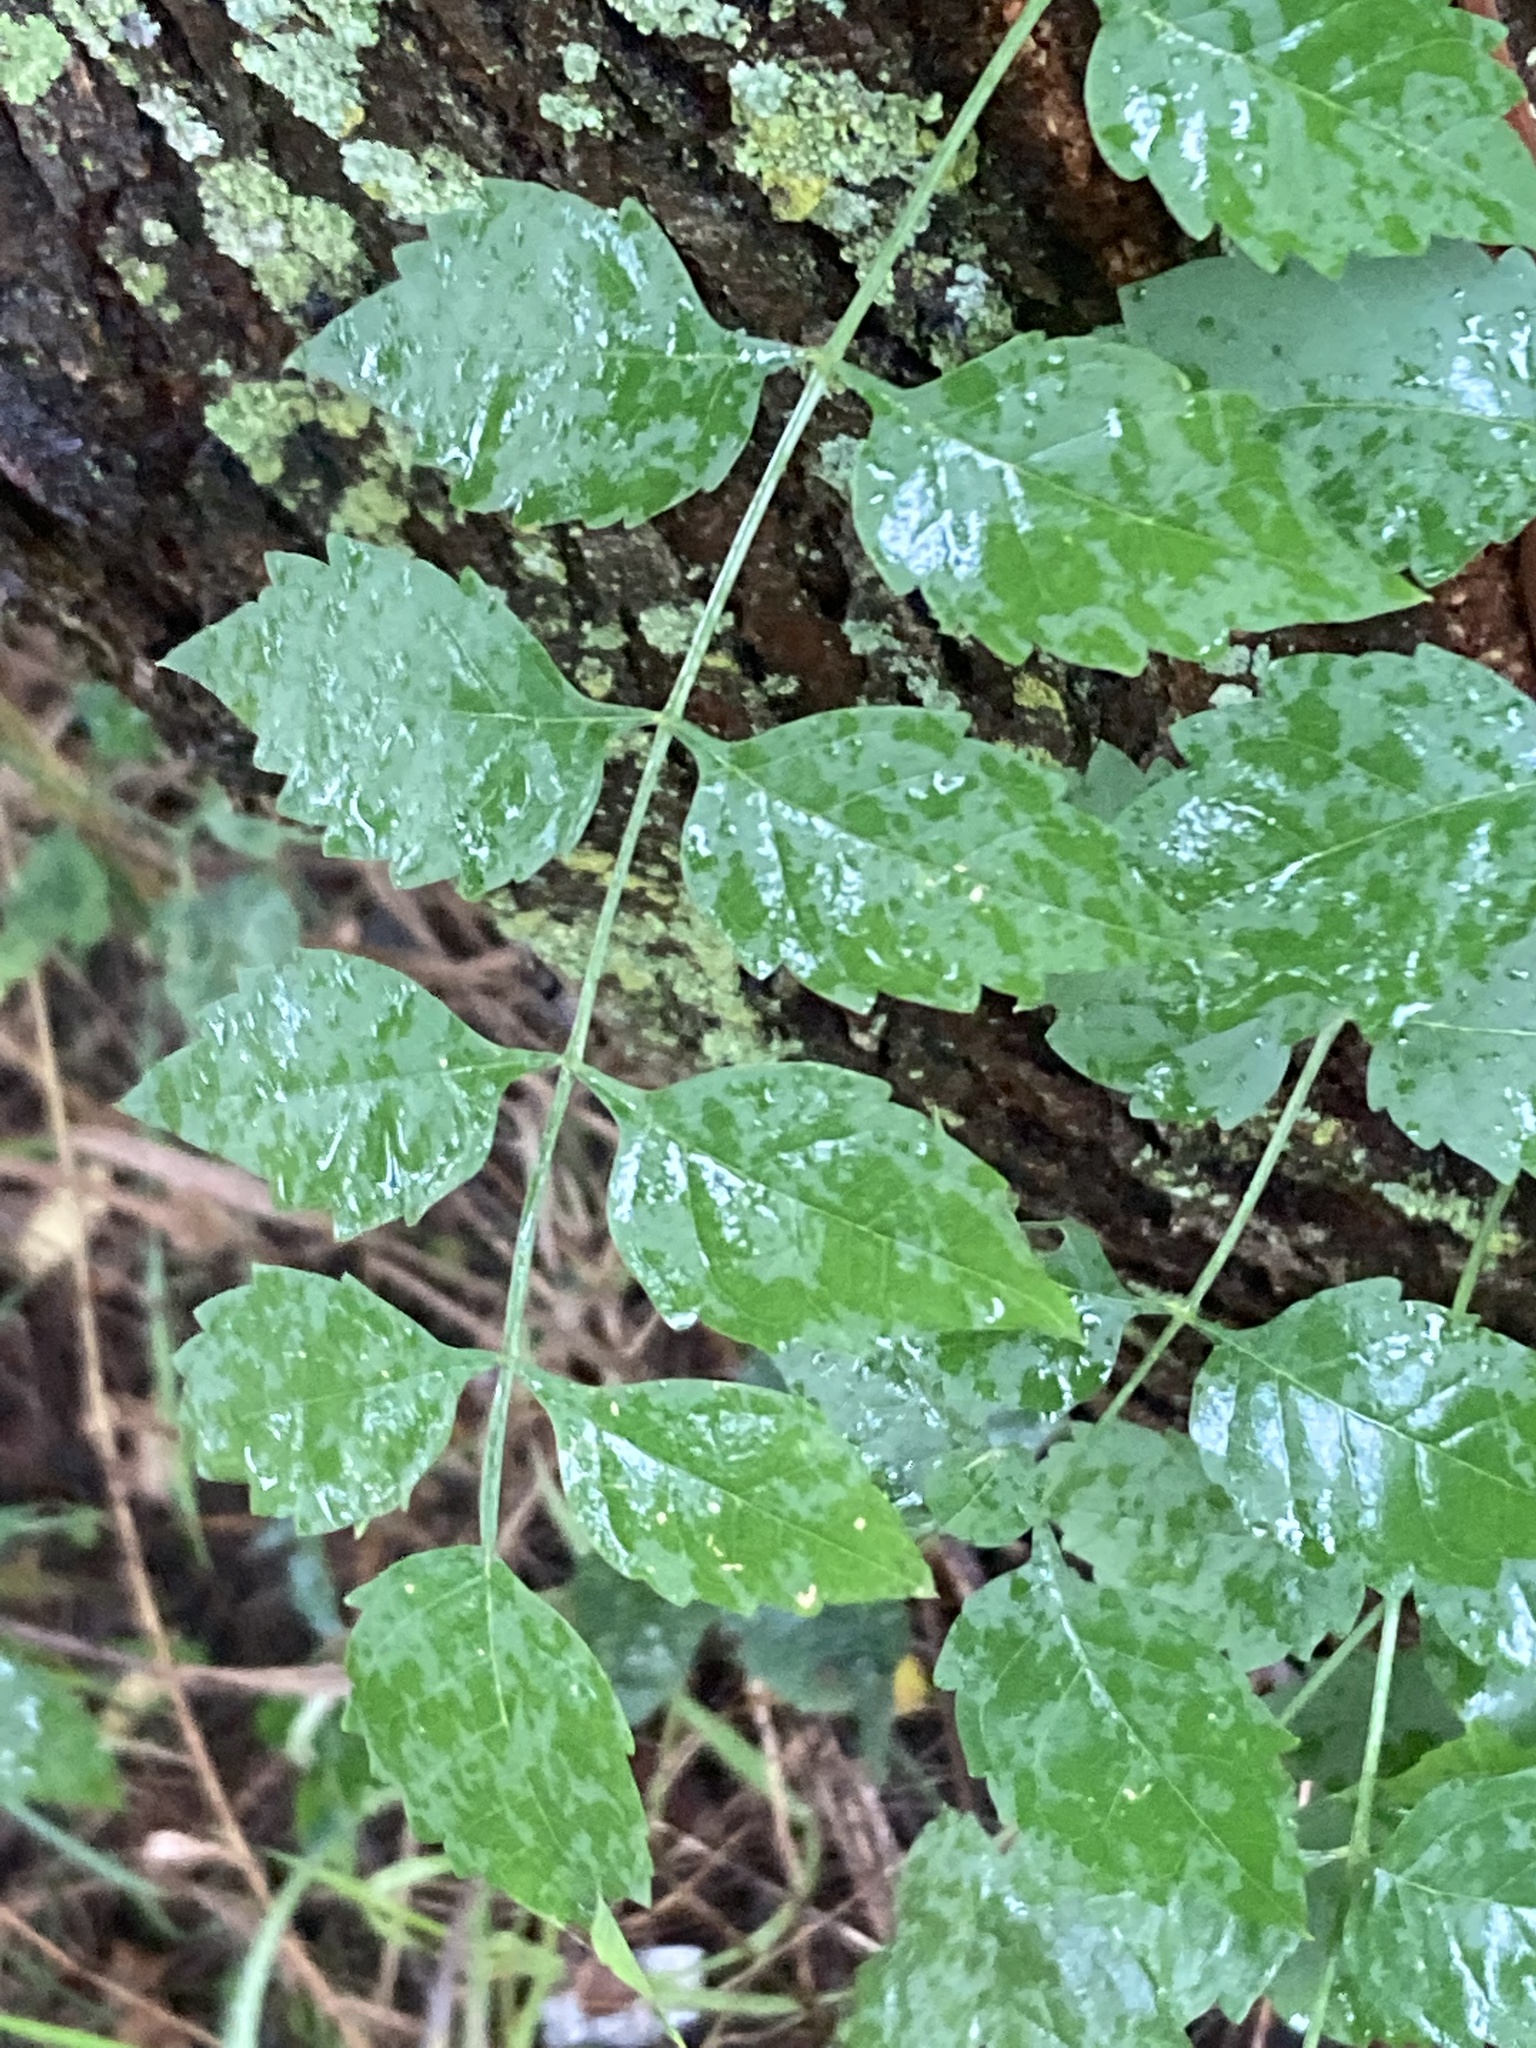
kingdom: Plantae
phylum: Tracheophyta
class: Magnoliopsida
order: Lamiales
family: Bignoniaceae
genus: Campsis
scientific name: Campsis radicans
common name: Trumpet-creeper
